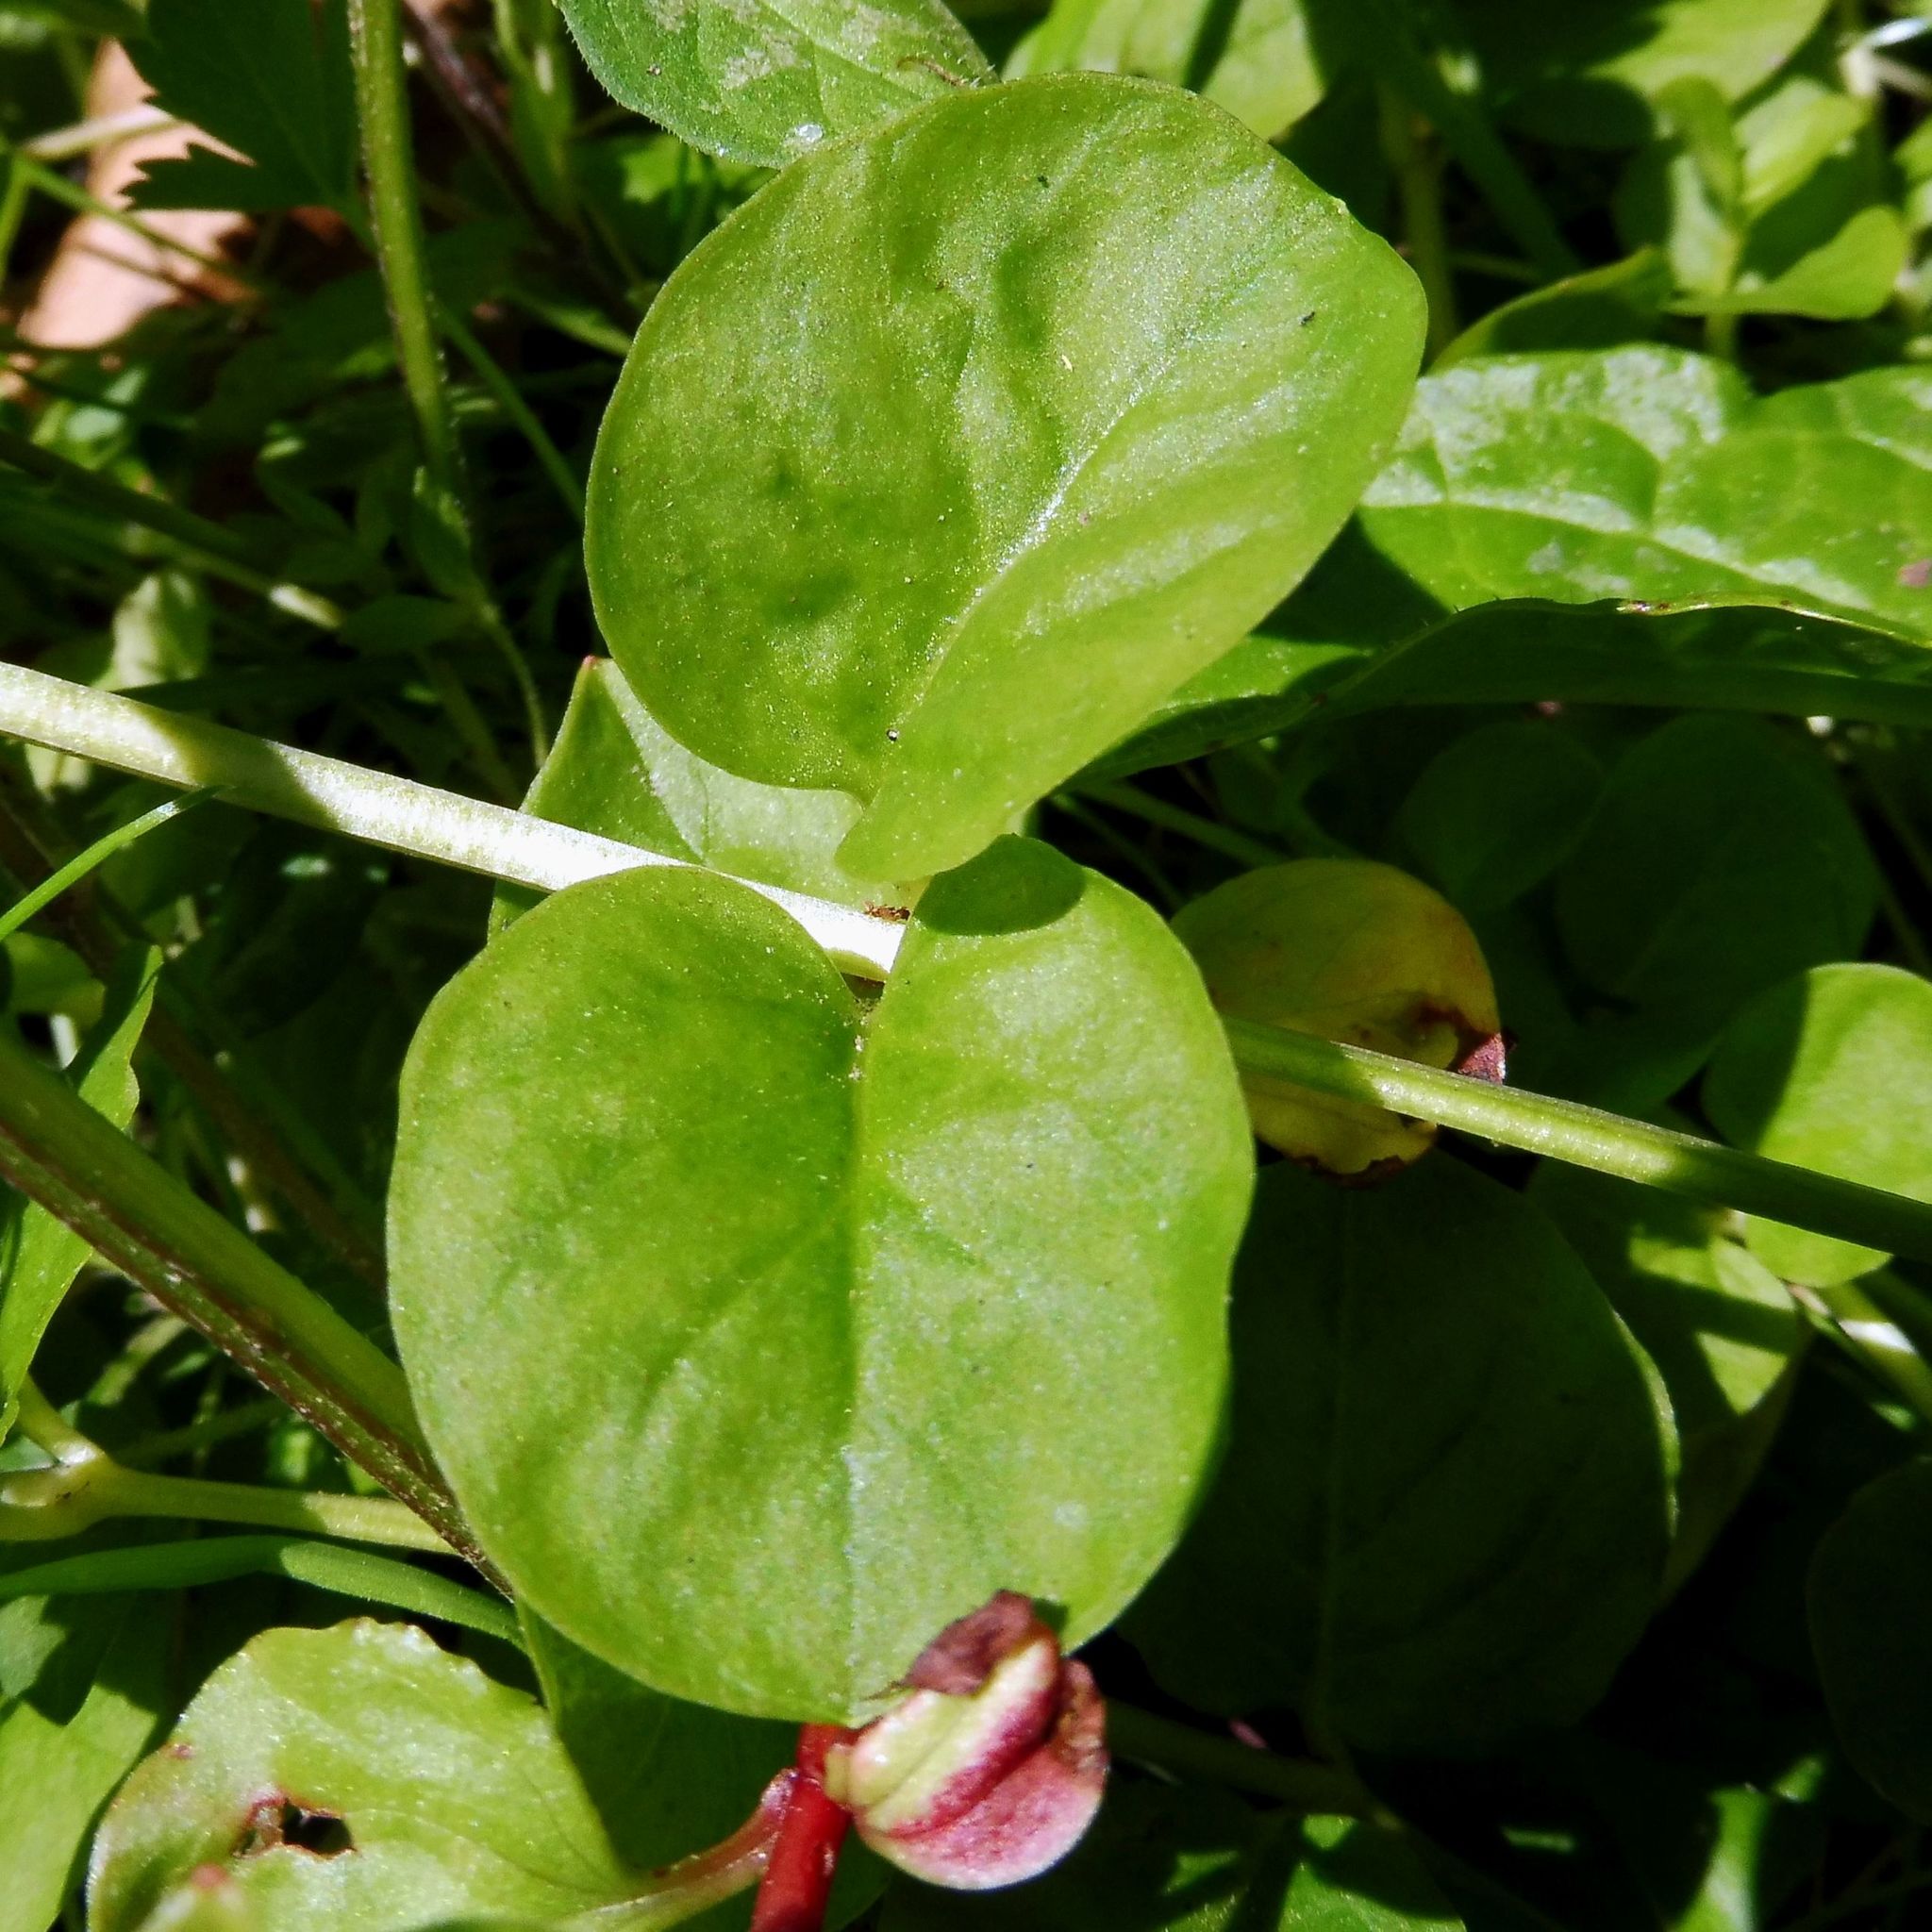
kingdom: Plantae
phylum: Tracheophyta
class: Magnoliopsida
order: Ericales
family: Primulaceae
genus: Lysimachia
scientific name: Lysimachia nummularia
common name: Moneywort
